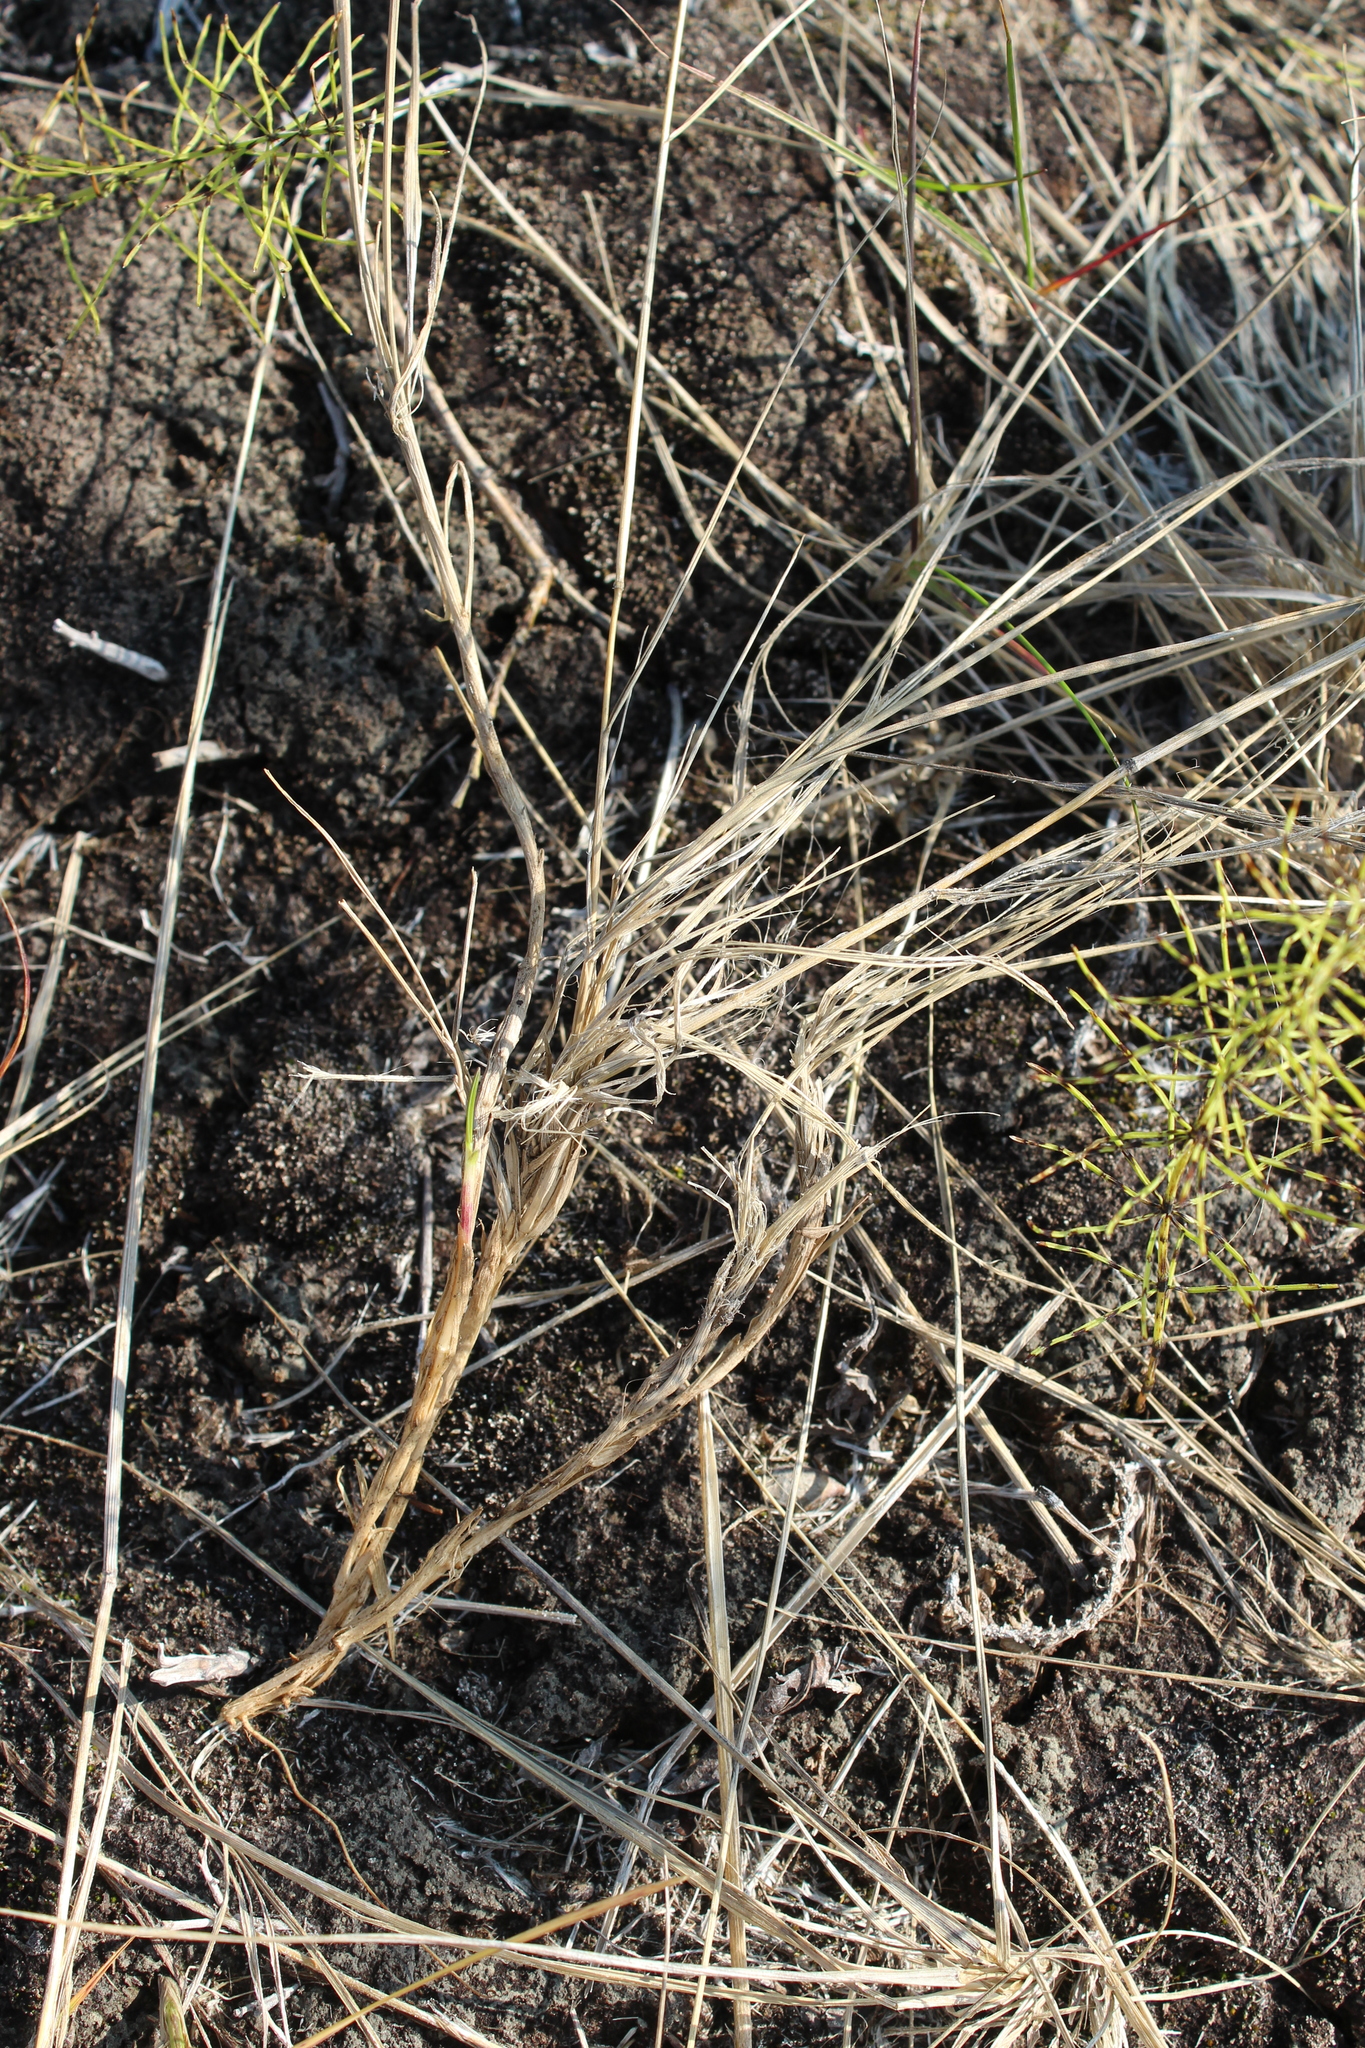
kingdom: Plantae
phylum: Tracheophyta
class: Liliopsida
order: Poales
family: Poaceae
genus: Calamagrostis
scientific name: Calamagrostis lapponica
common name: Lapland reedgrass
